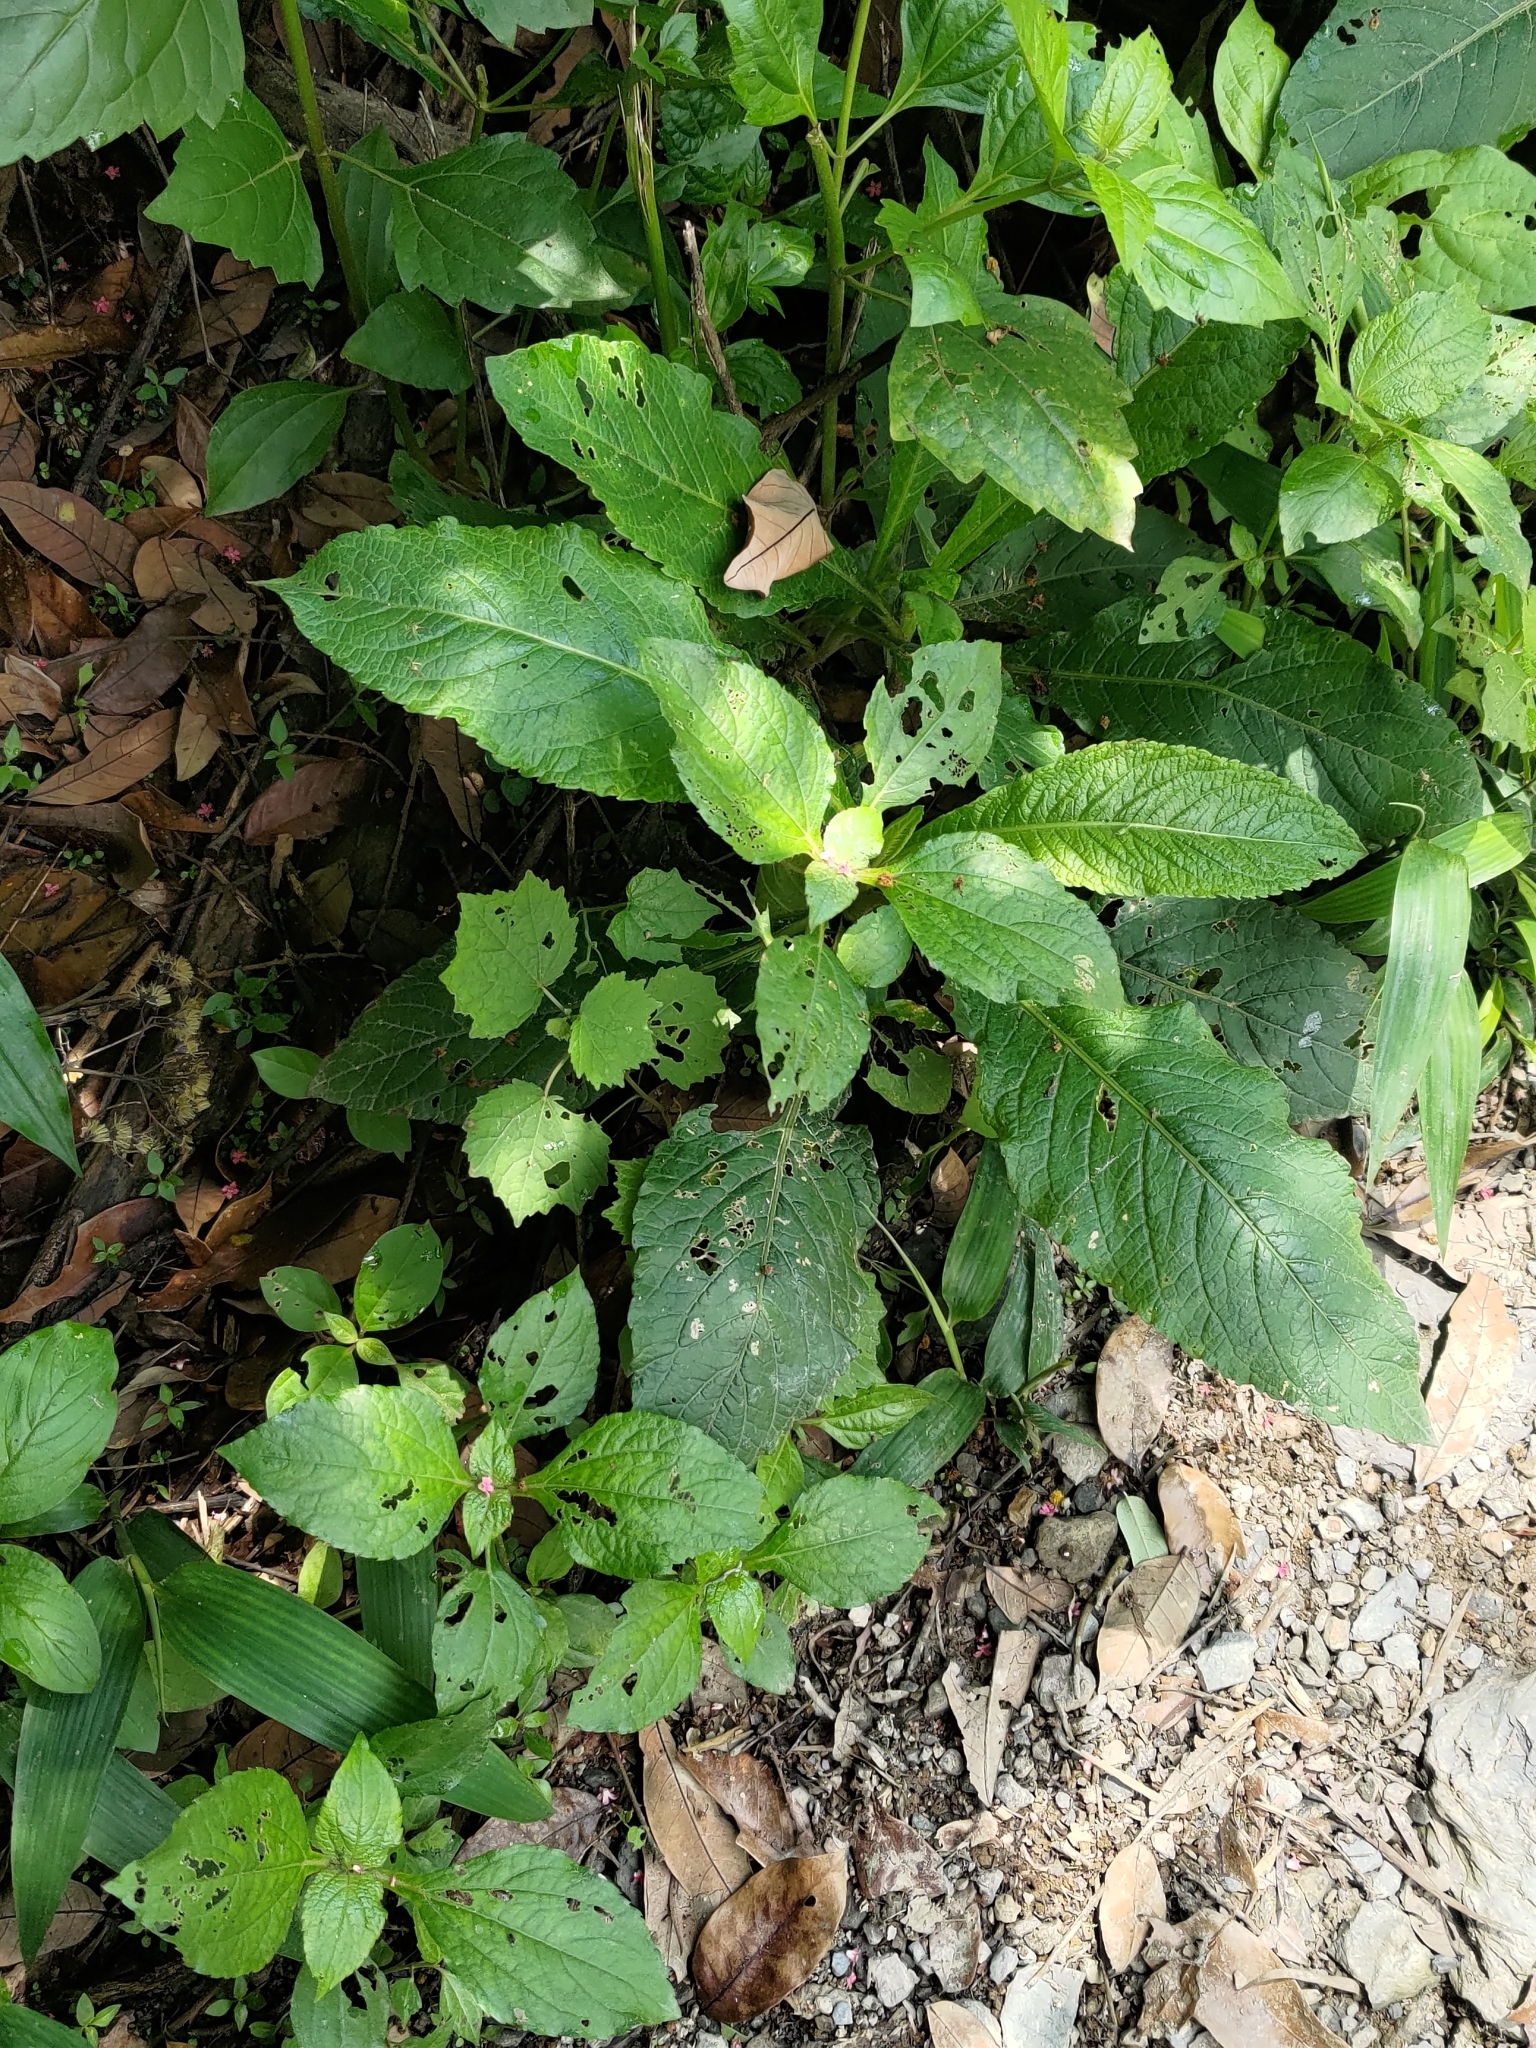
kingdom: Plantae
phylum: Tracheophyta
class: Magnoliopsida
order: Asterales
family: Asteraceae
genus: Elephantopus
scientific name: Elephantopus mollis
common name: Soft elephantsfoot
